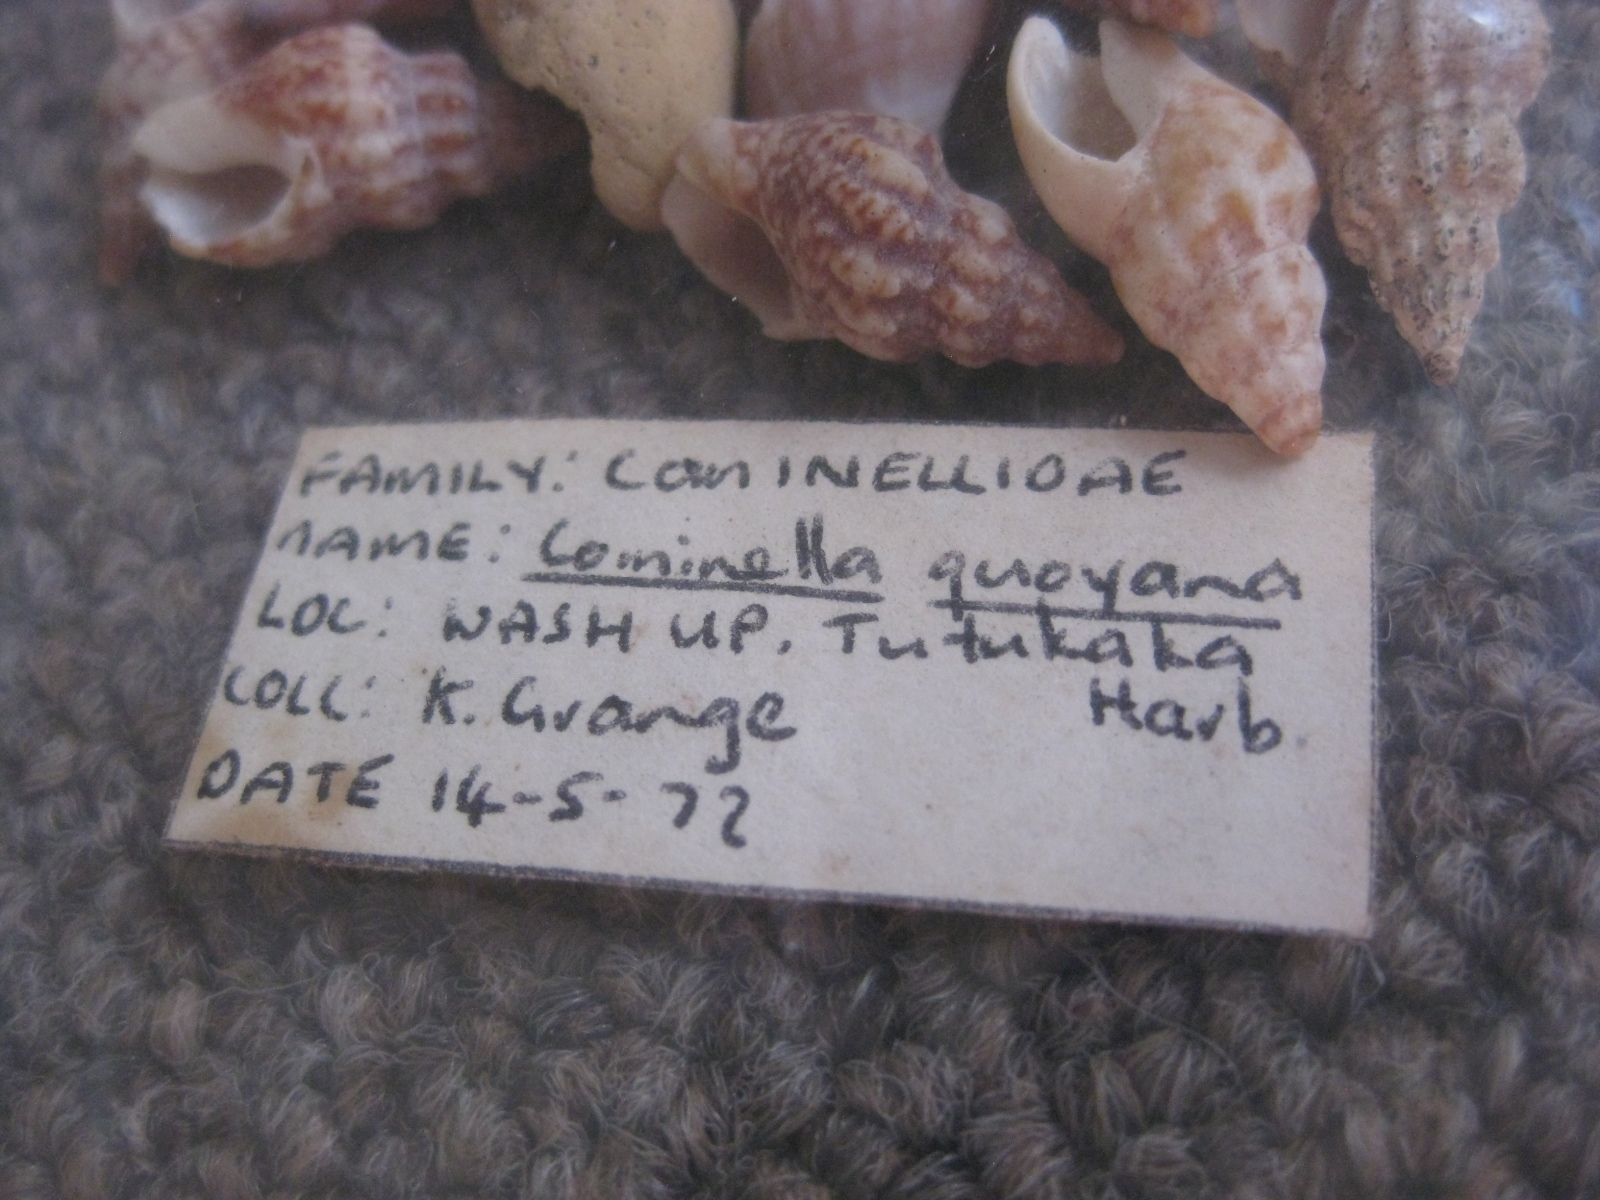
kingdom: Animalia
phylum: Mollusca
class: Gastropoda
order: Neogastropoda
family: Cominellidae
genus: Cominella
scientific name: Cominella quoyana
